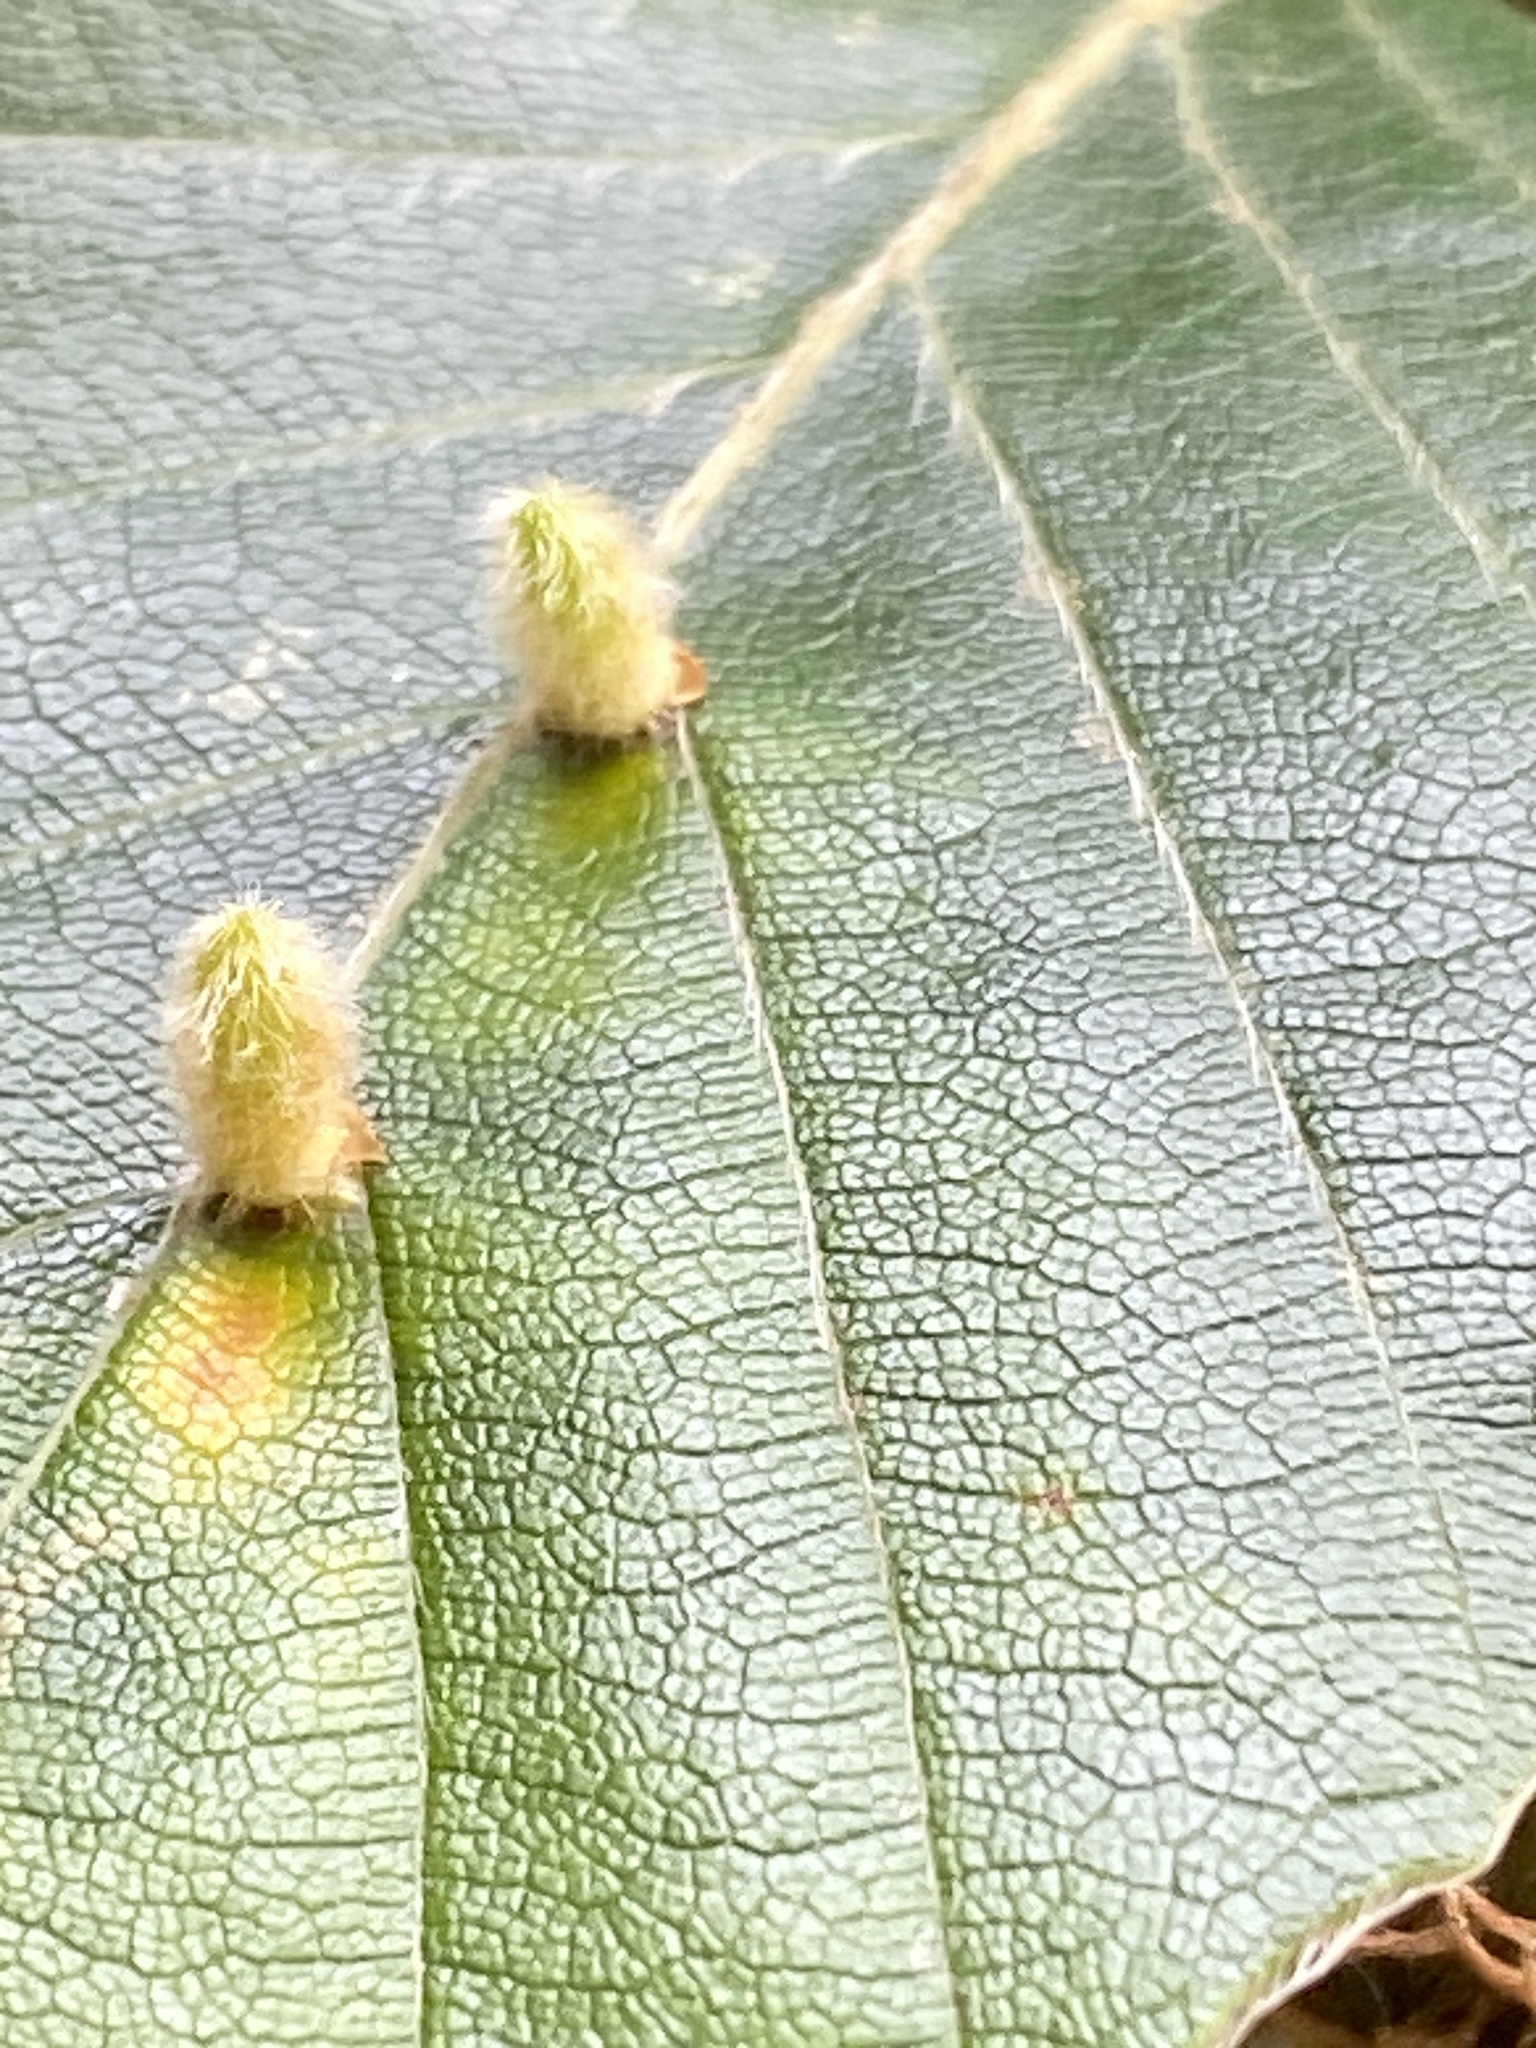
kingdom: Animalia
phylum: Arthropoda
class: Insecta
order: Diptera
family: Cecidomyiidae
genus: Hartigiola
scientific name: Hartigiola annulipes
